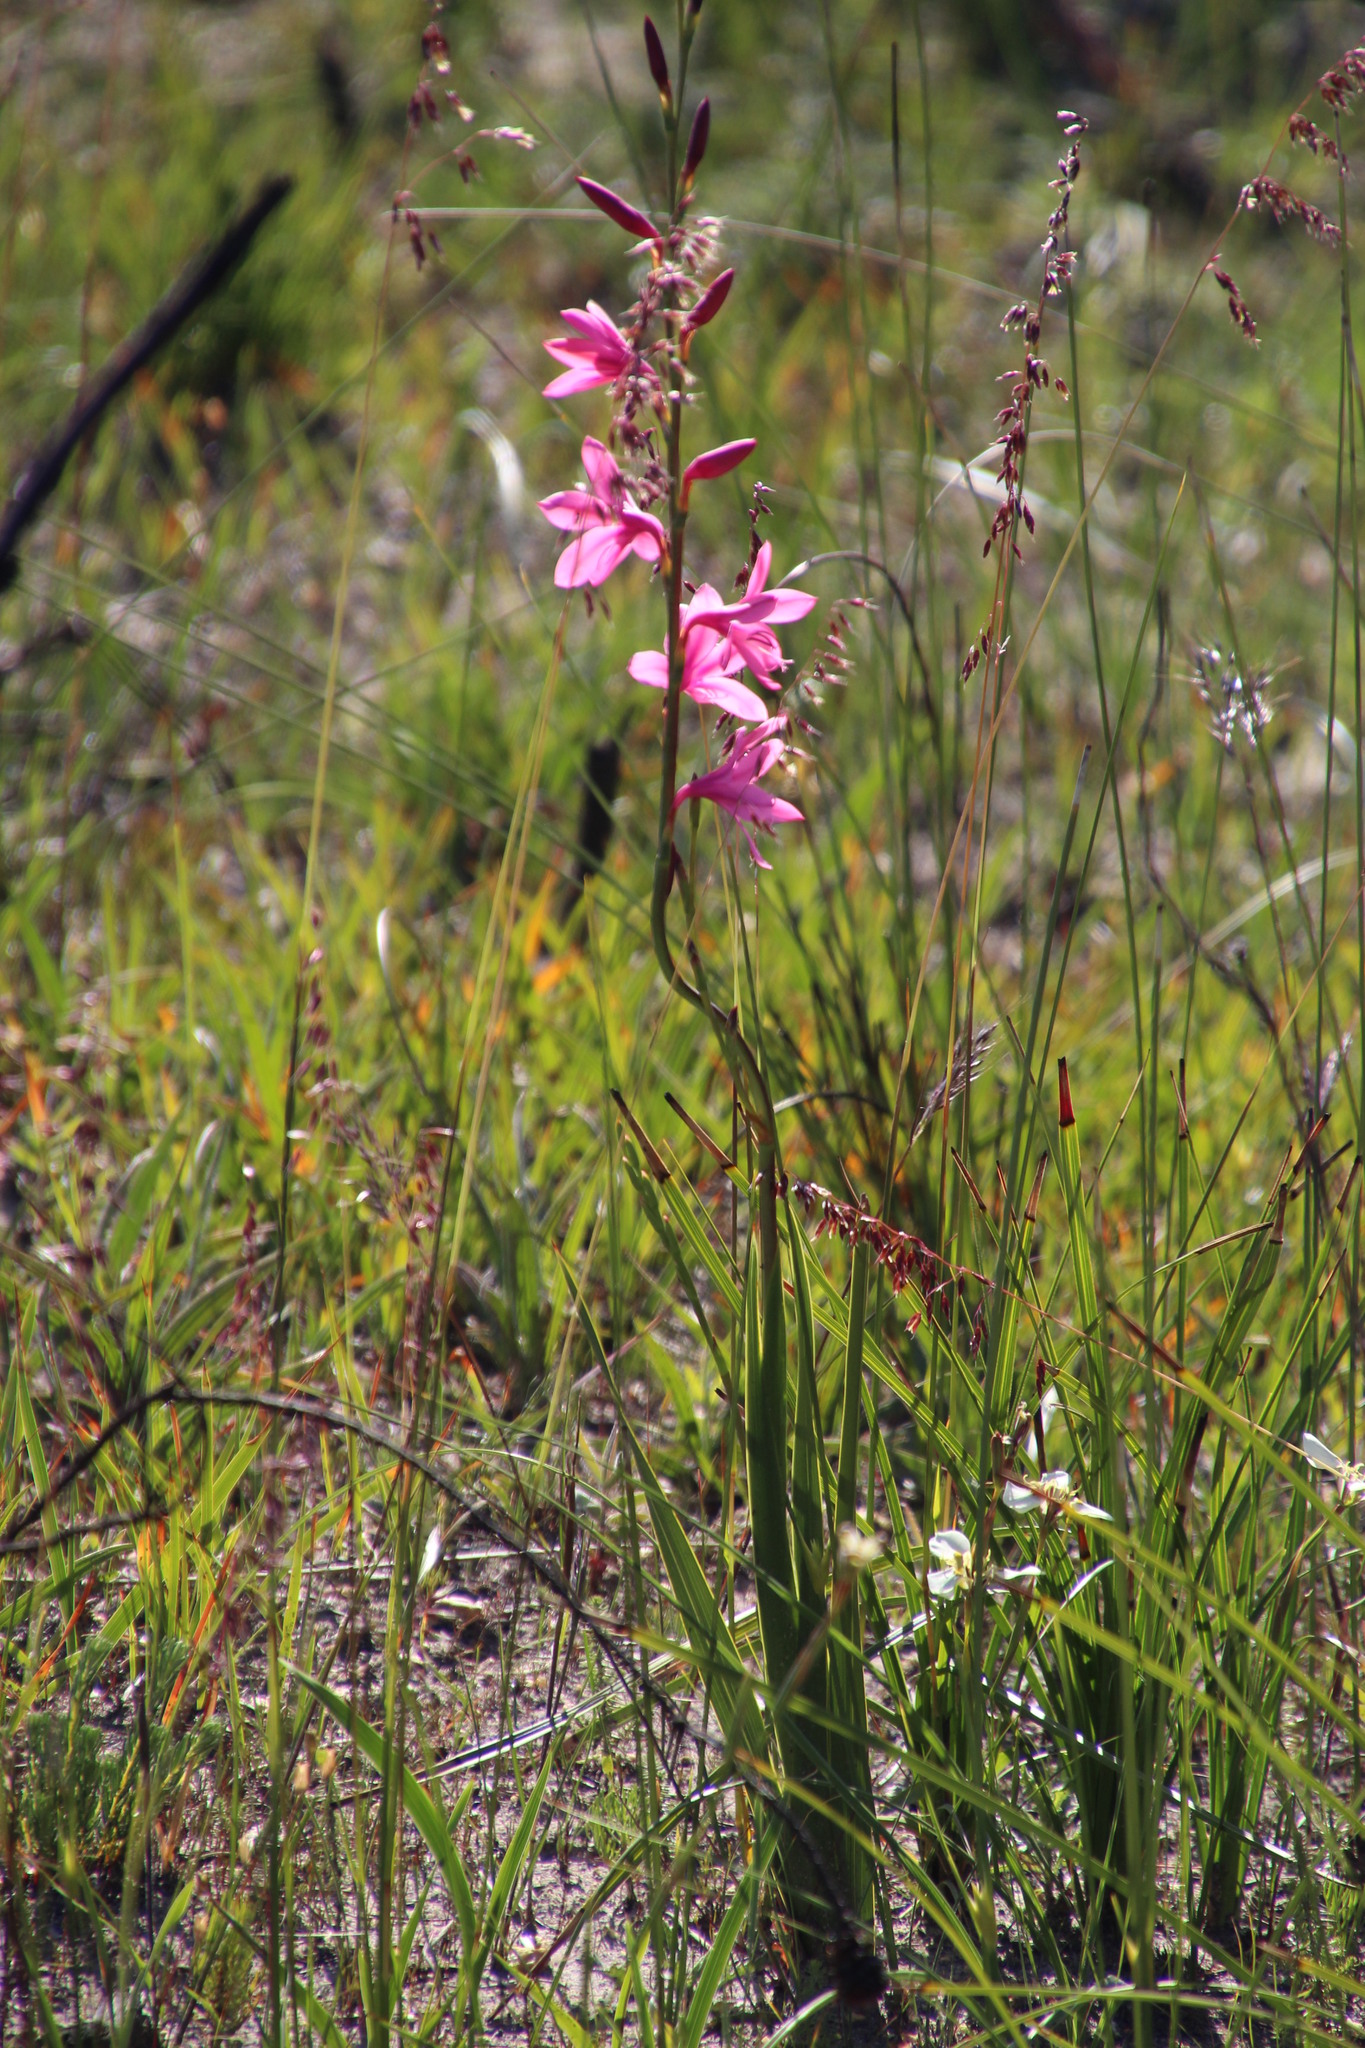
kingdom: Plantae
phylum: Tracheophyta
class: Liliopsida
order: Asparagales
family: Iridaceae
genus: Watsonia
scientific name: Watsonia borbonica
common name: Bugle-lily
